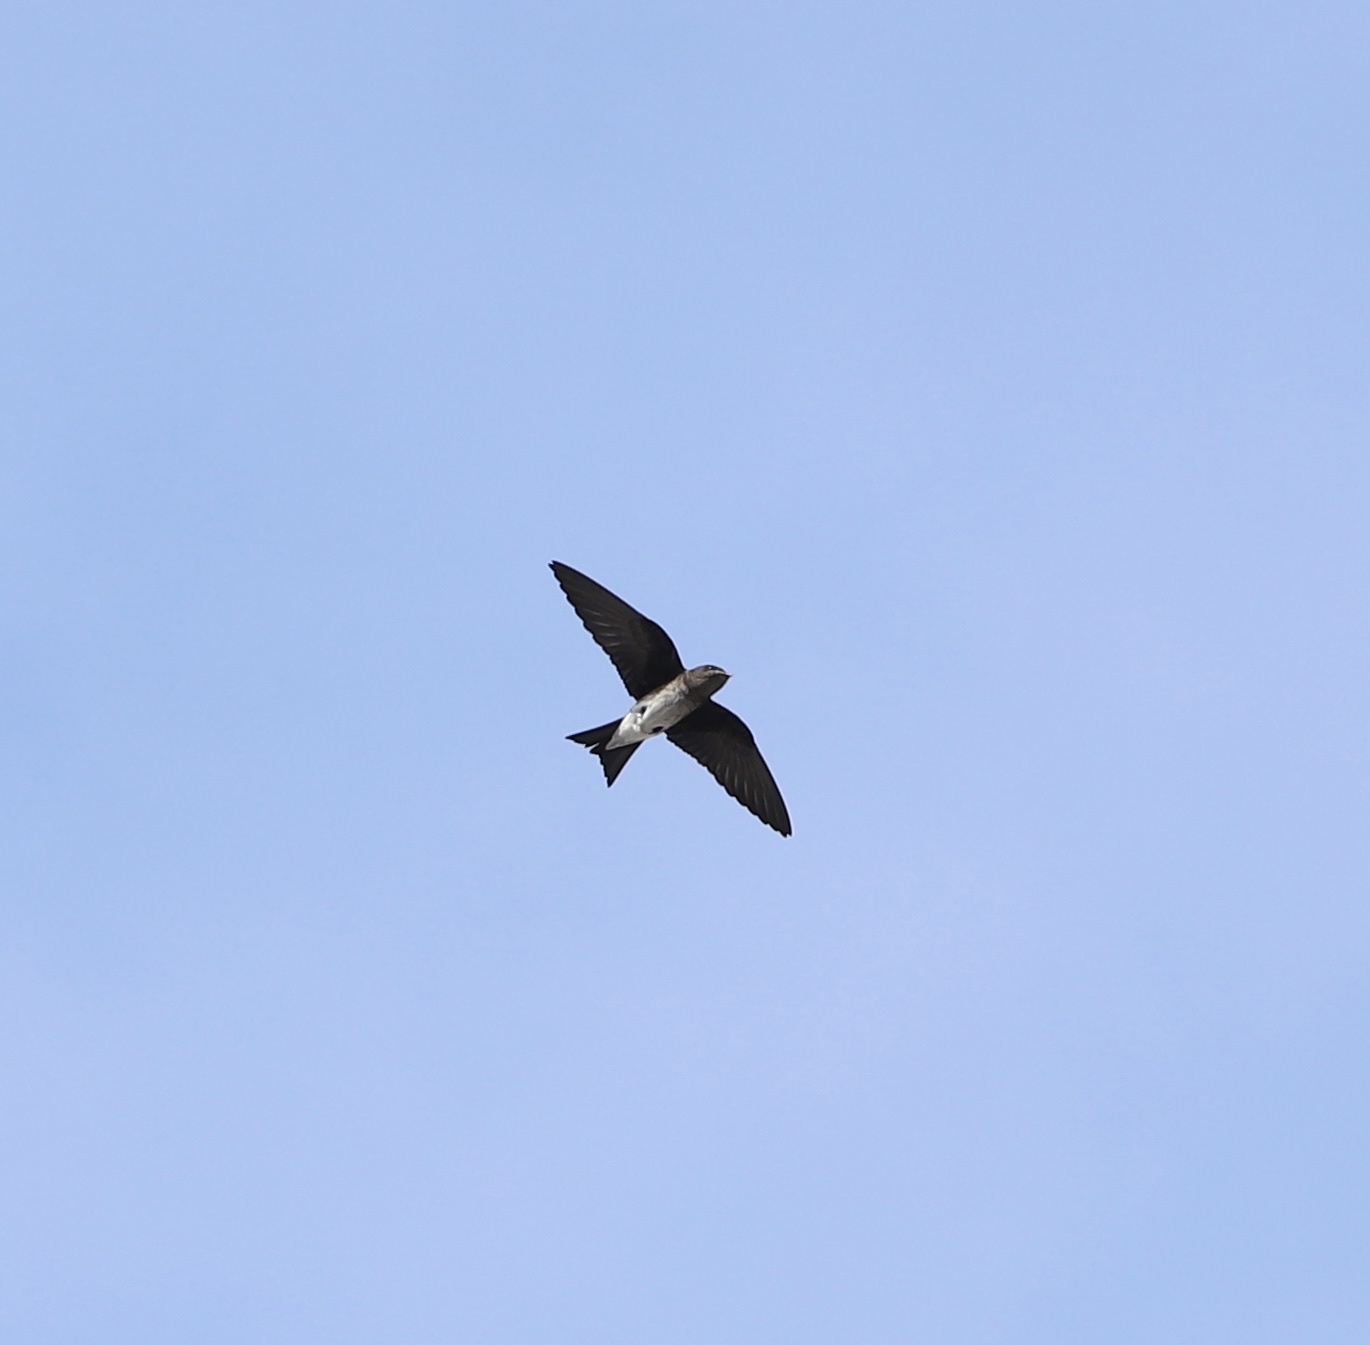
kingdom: Animalia
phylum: Chordata
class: Aves
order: Passeriformes
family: Hirundinidae
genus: Progne
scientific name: Progne chalybea
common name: Grey-breasted martin
